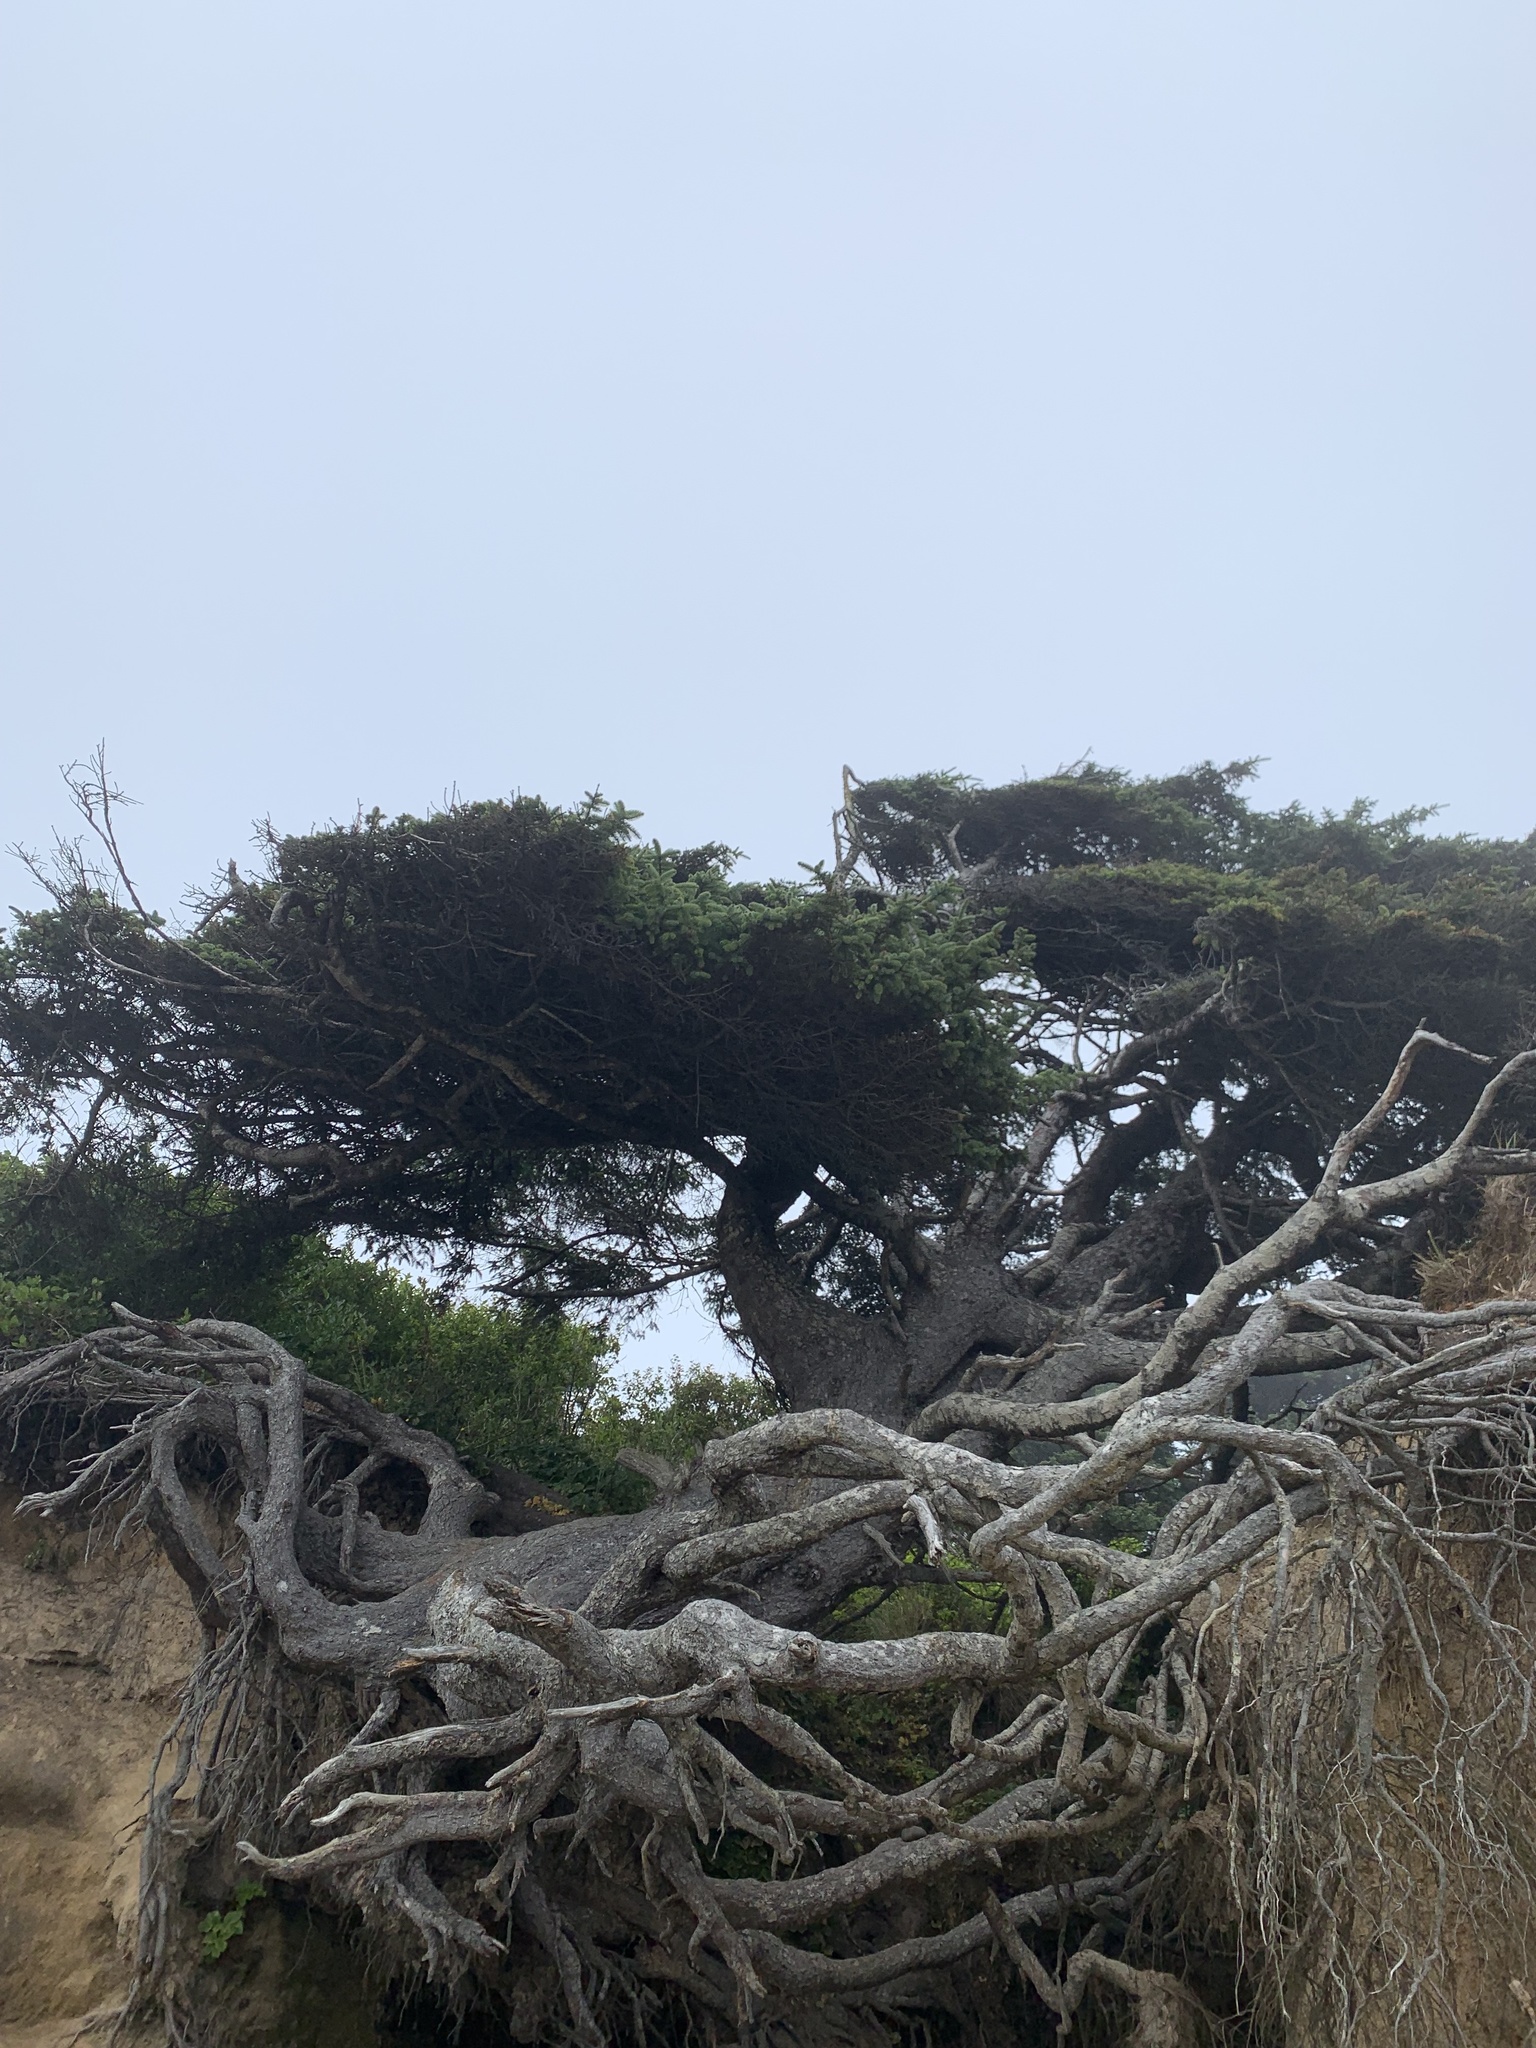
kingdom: Plantae
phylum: Tracheophyta
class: Pinopsida
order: Pinales
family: Pinaceae
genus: Picea
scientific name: Picea sitchensis
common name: Sitka spruce
